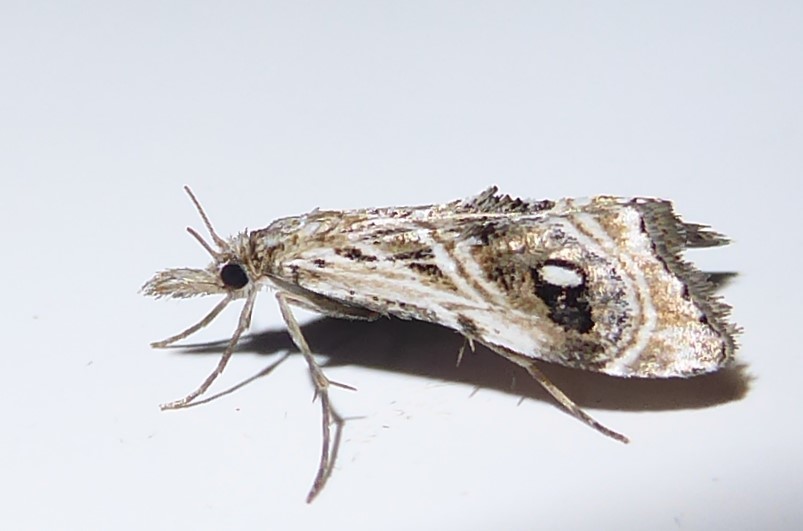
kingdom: Animalia
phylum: Arthropoda
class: Insecta
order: Lepidoptera
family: Crambidae
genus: Gadira
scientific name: Gadira acerella
